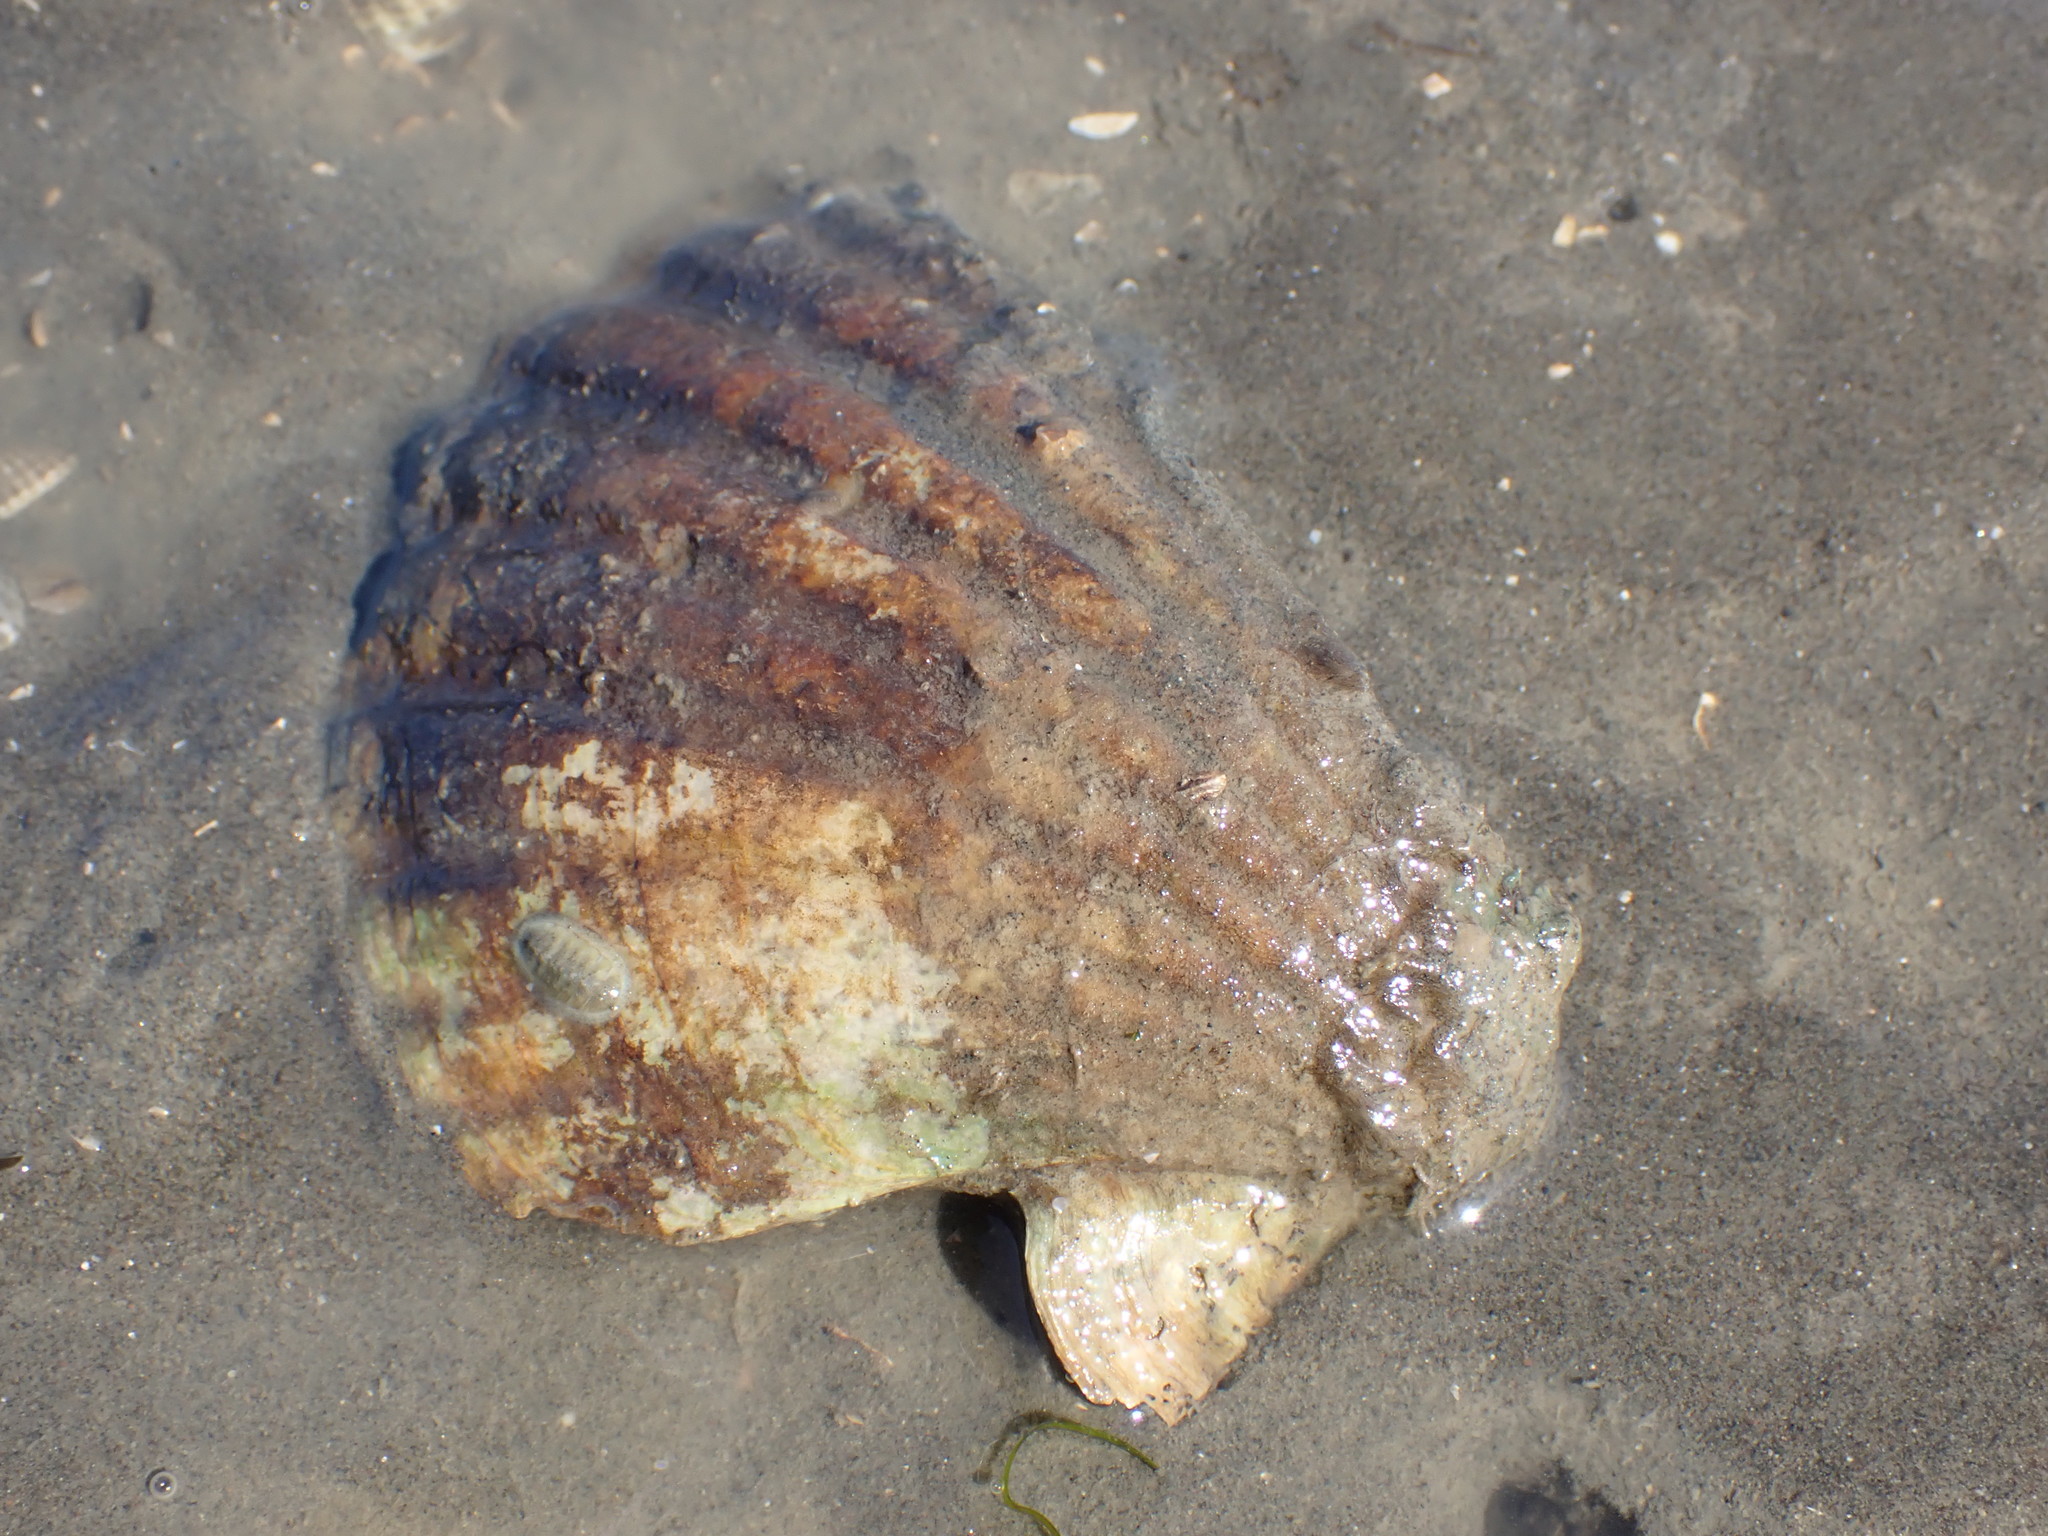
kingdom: Animalia
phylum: Mollusca
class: Bivalvia
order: Pectinida
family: Pectinidae
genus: Pecten
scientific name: Pecten novaezelandiae
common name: New zealand scallop
